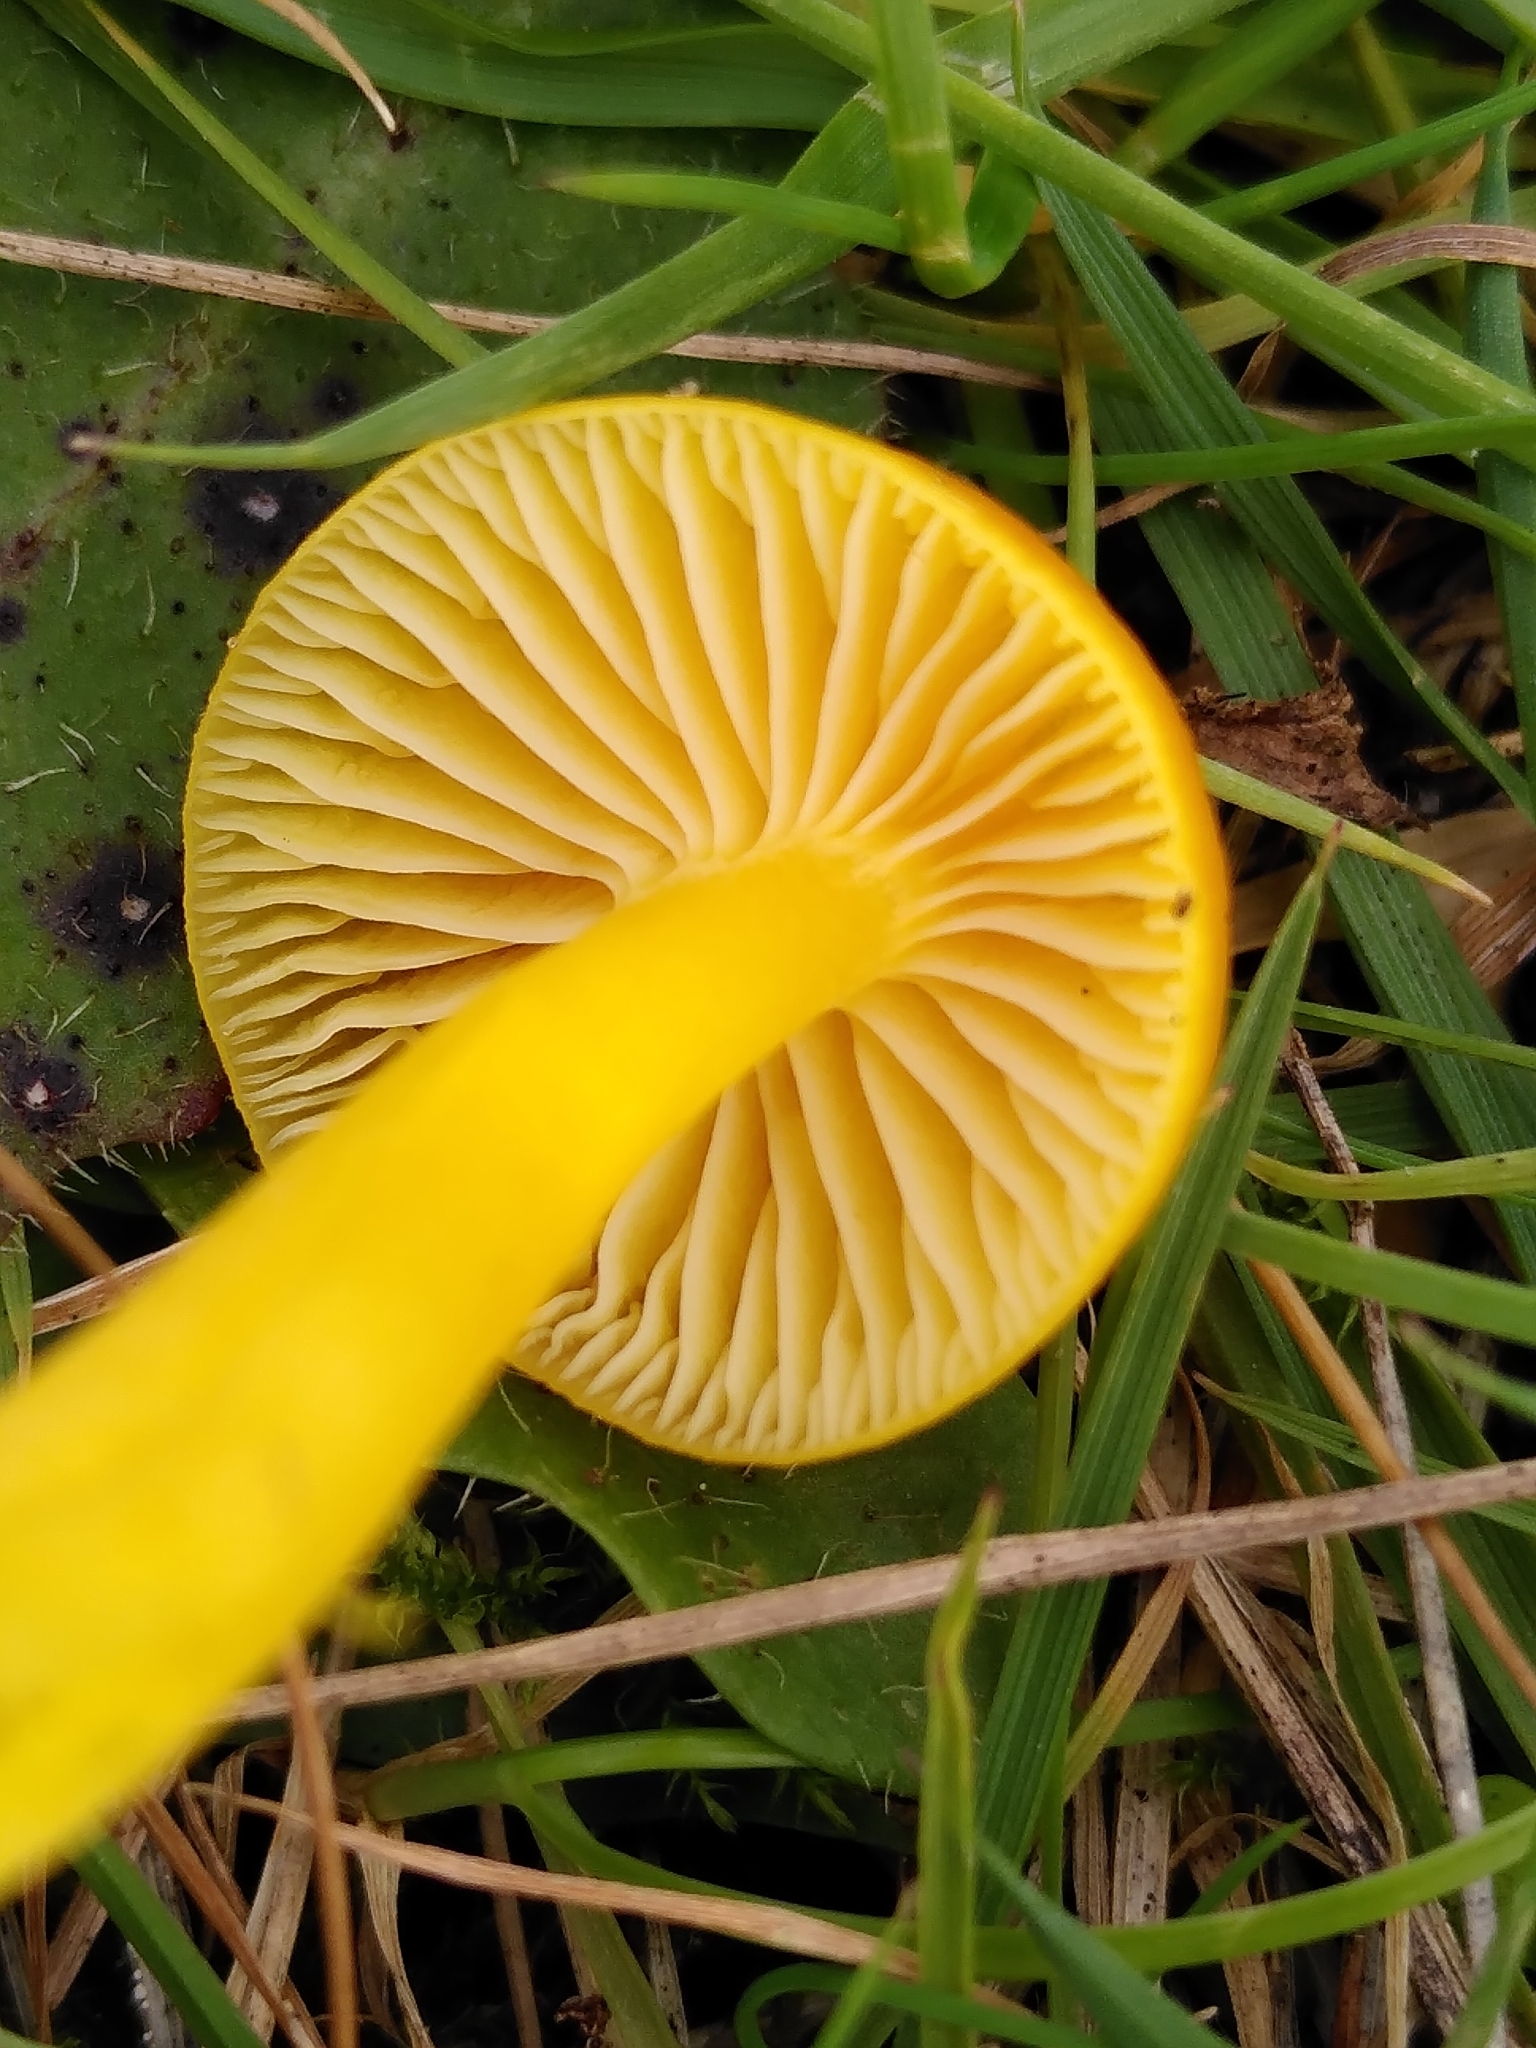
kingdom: Fungi
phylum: Basidiomycota
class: Agaricomycetes
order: Agaricales
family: Hygrophoraceae
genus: Hygrocybe
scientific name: Hygrocybe ceracea
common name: Butter waxcap
